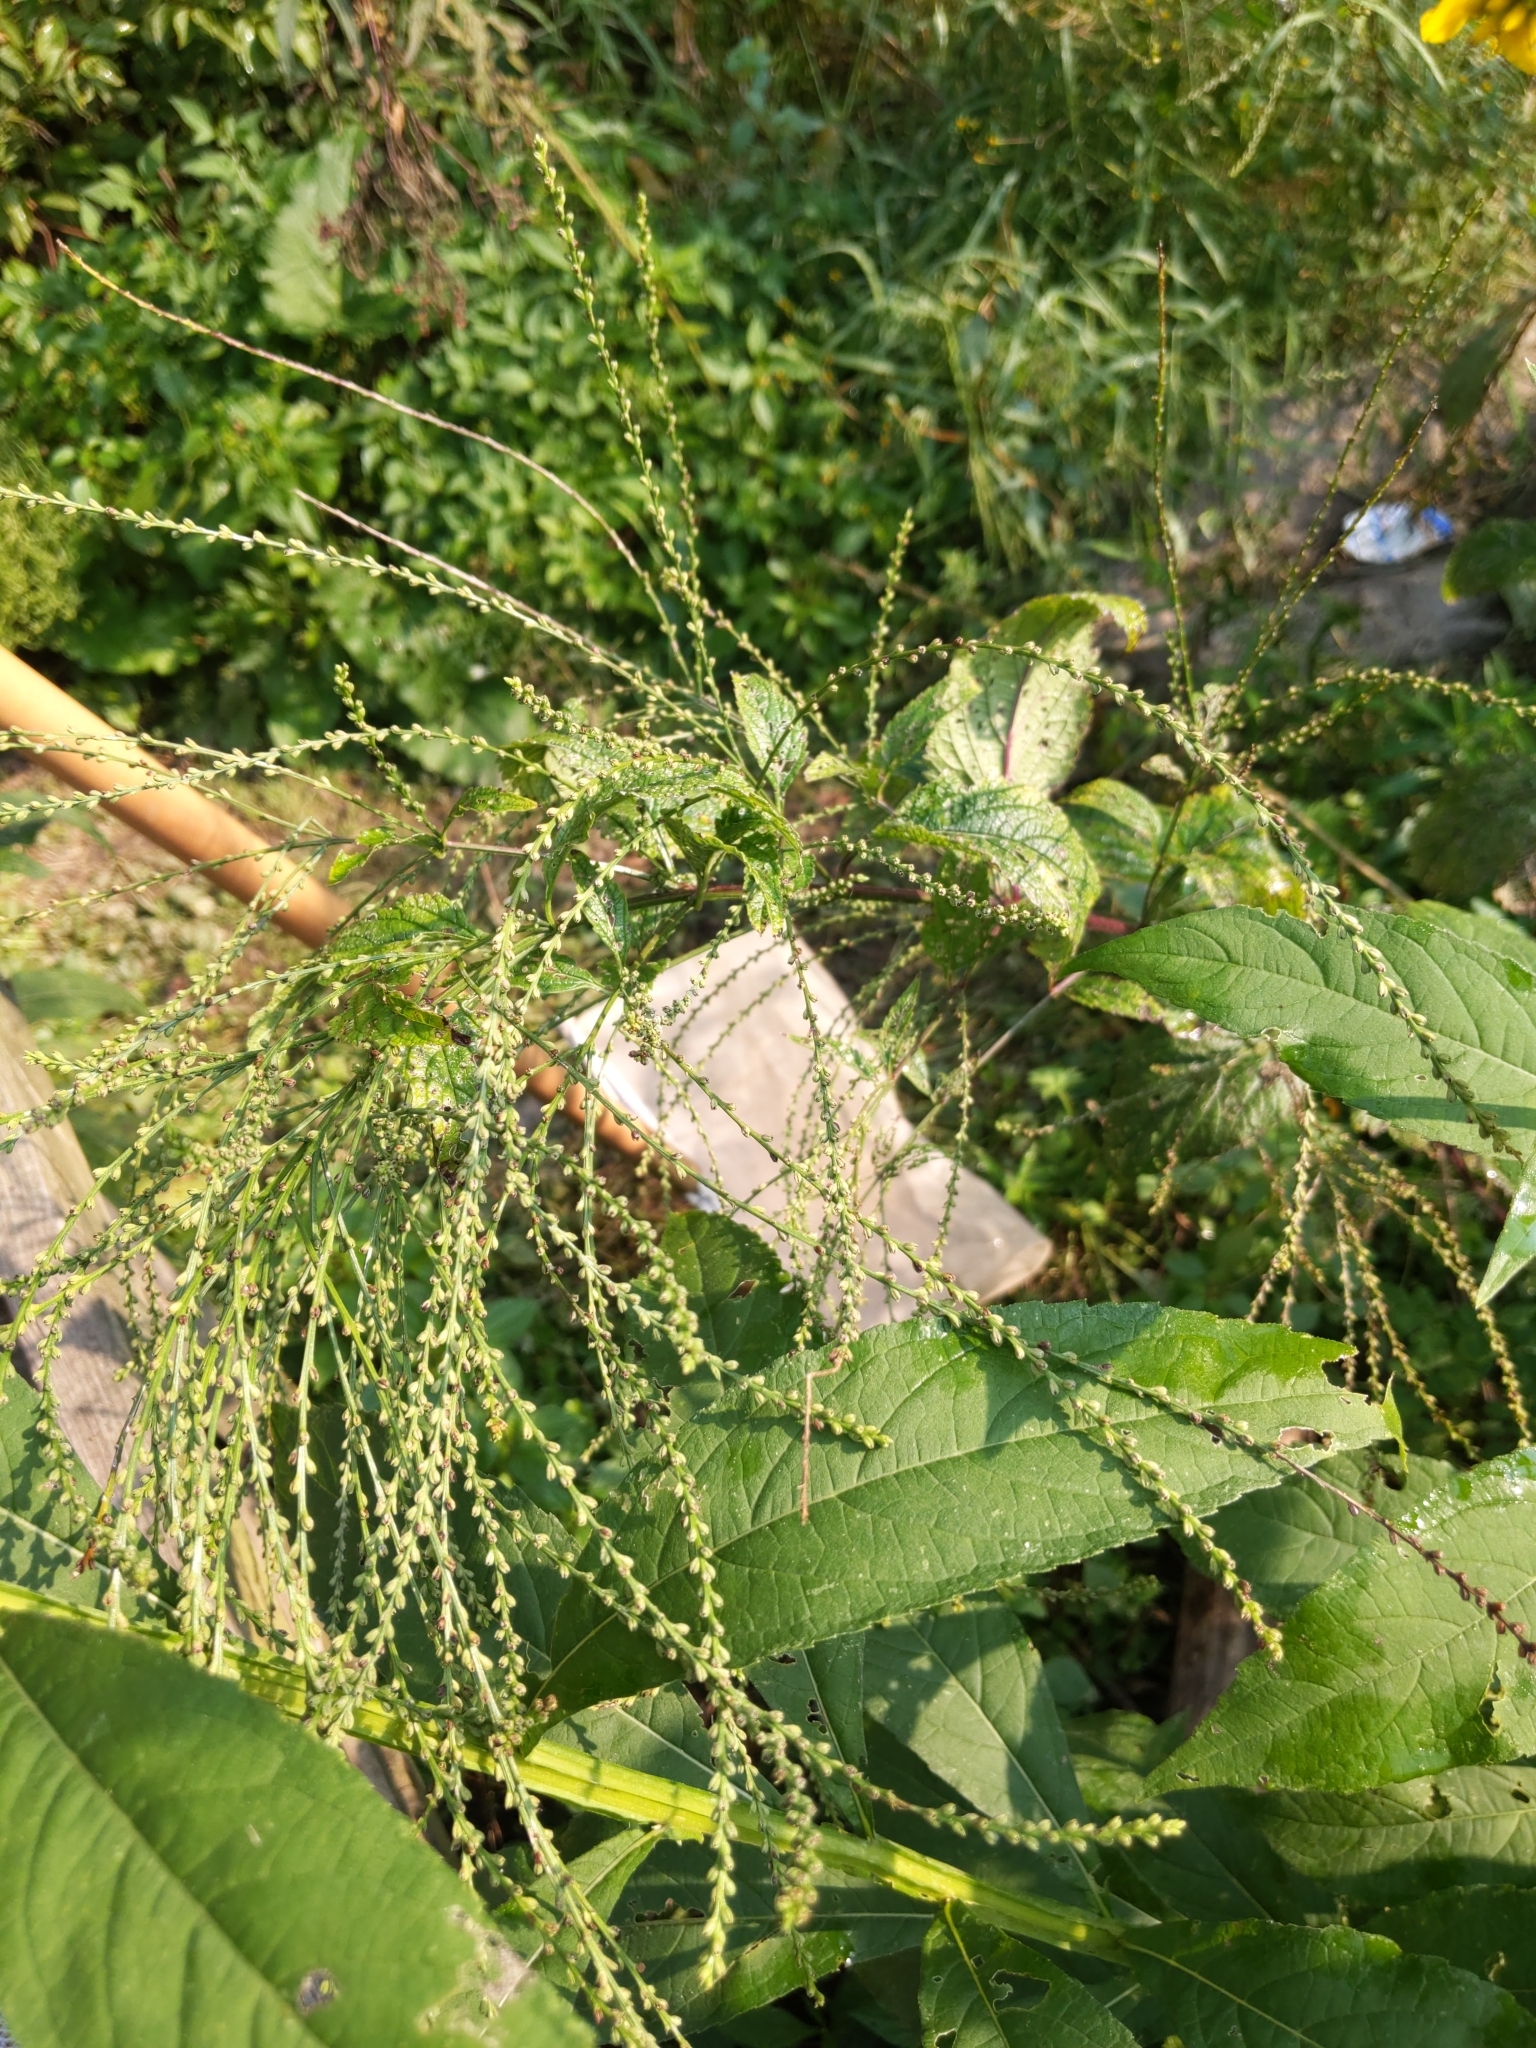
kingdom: Plantae
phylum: Tracheophyta
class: Magnoliopsida
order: Lamiales
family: Verbenaceae
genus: Verbena
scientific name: Verbena urticifolia
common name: Nettle-leaved vervain
